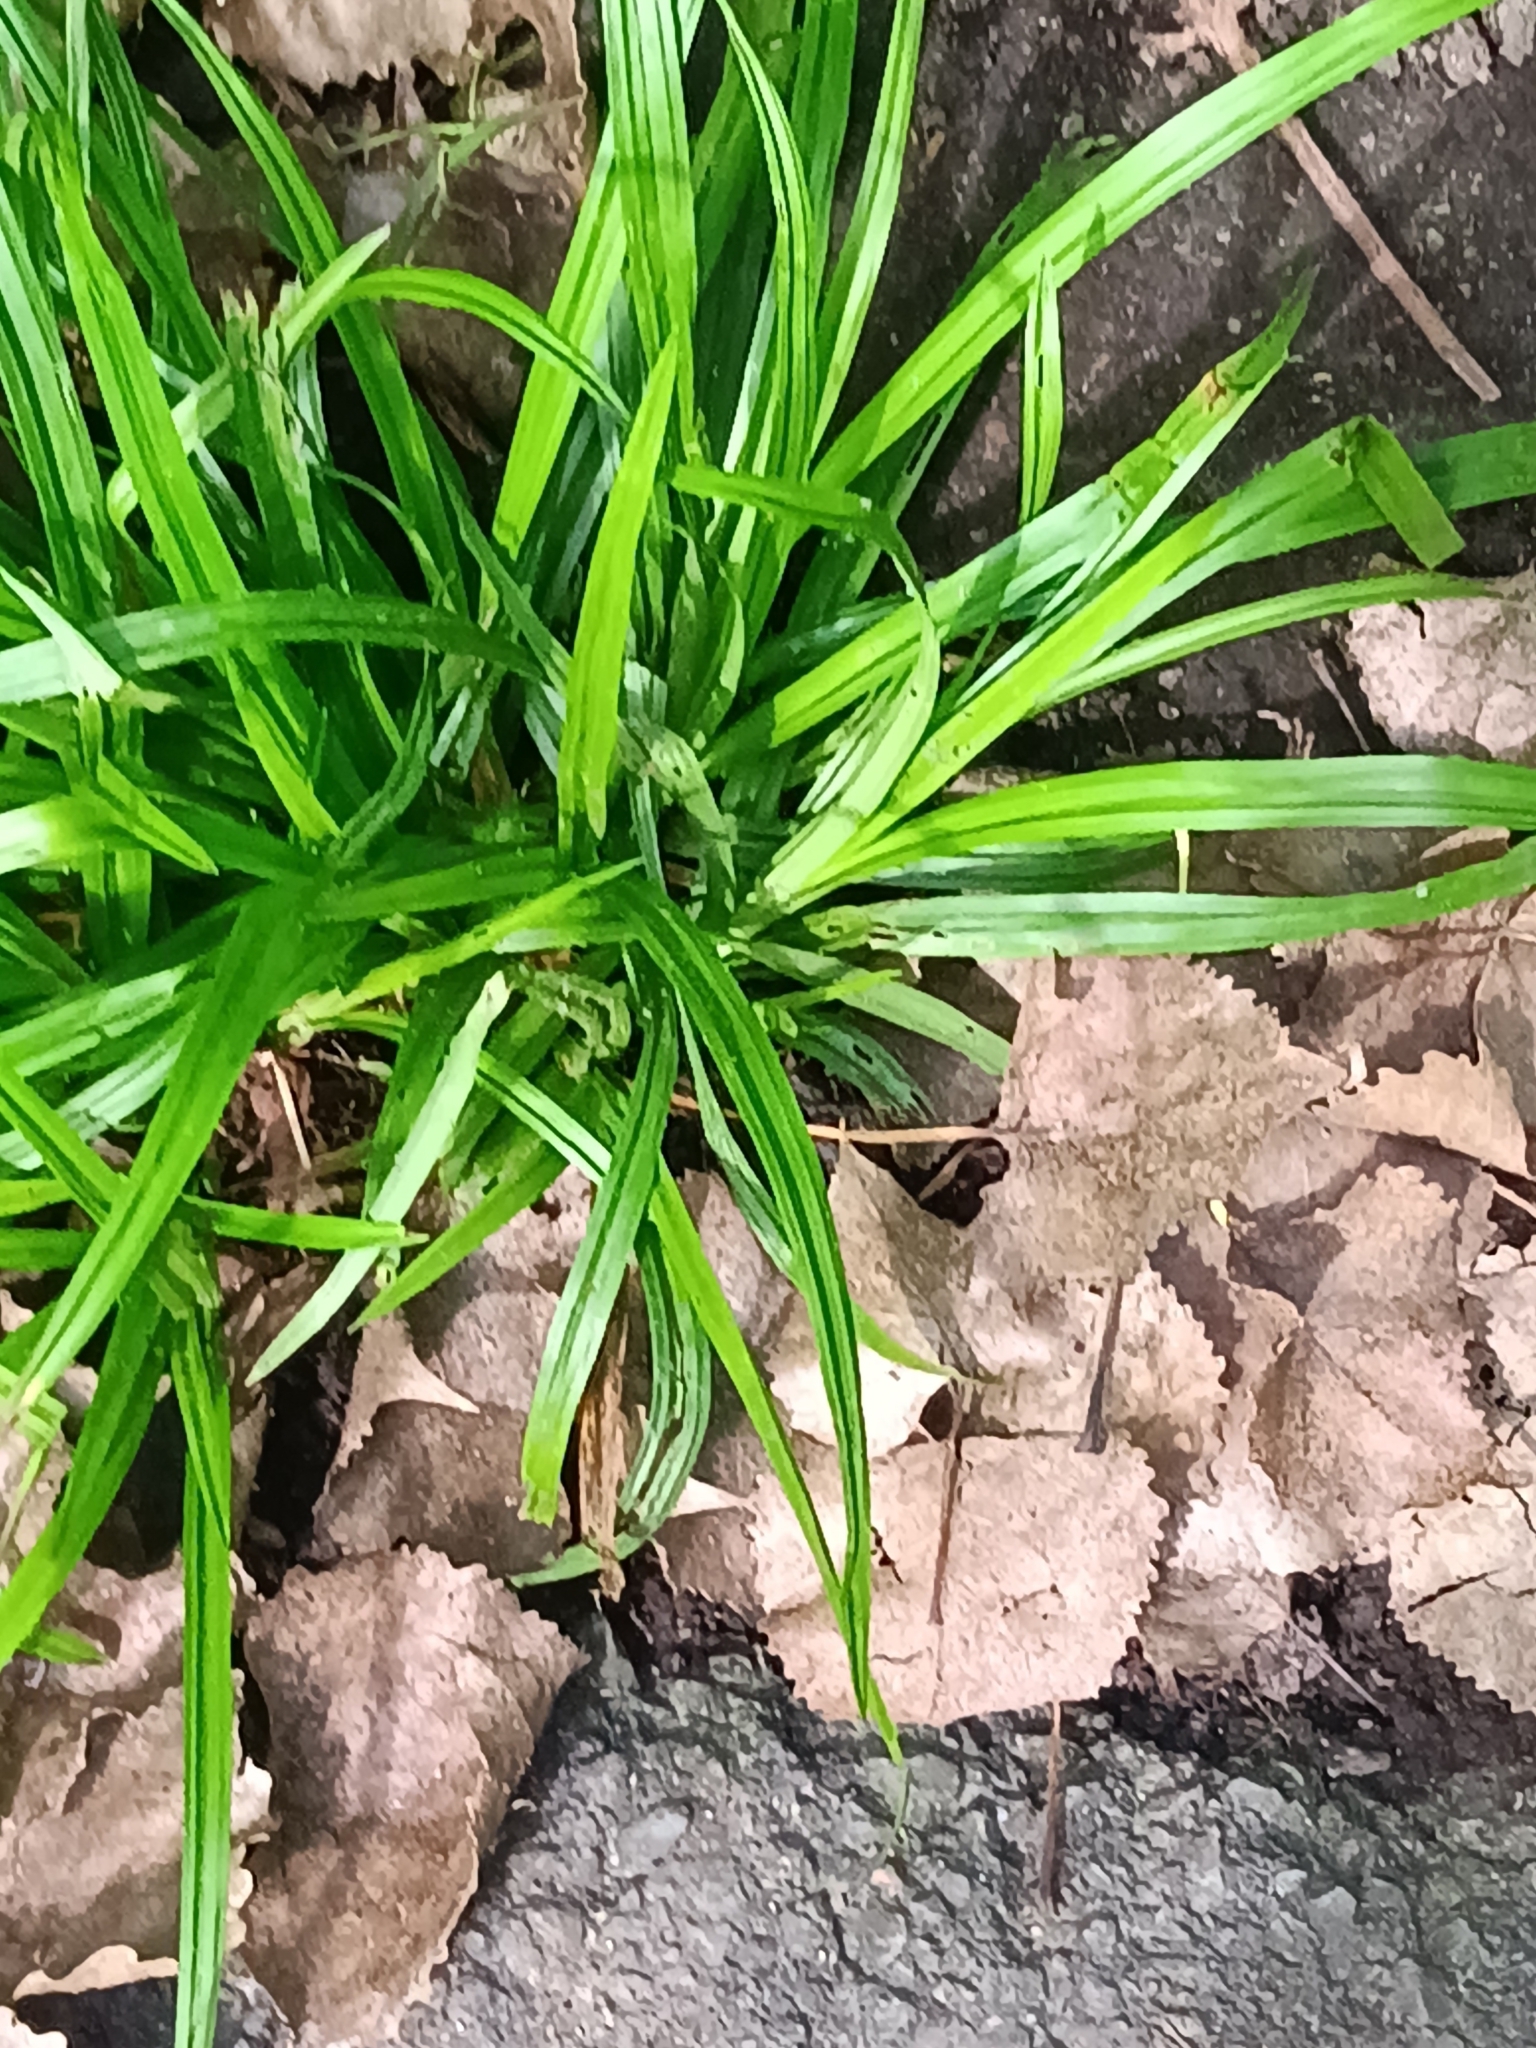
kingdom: Plantae
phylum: Tracheophyta
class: Liliopsida
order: Poales
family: Cyperaceae
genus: Carex
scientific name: Carex
